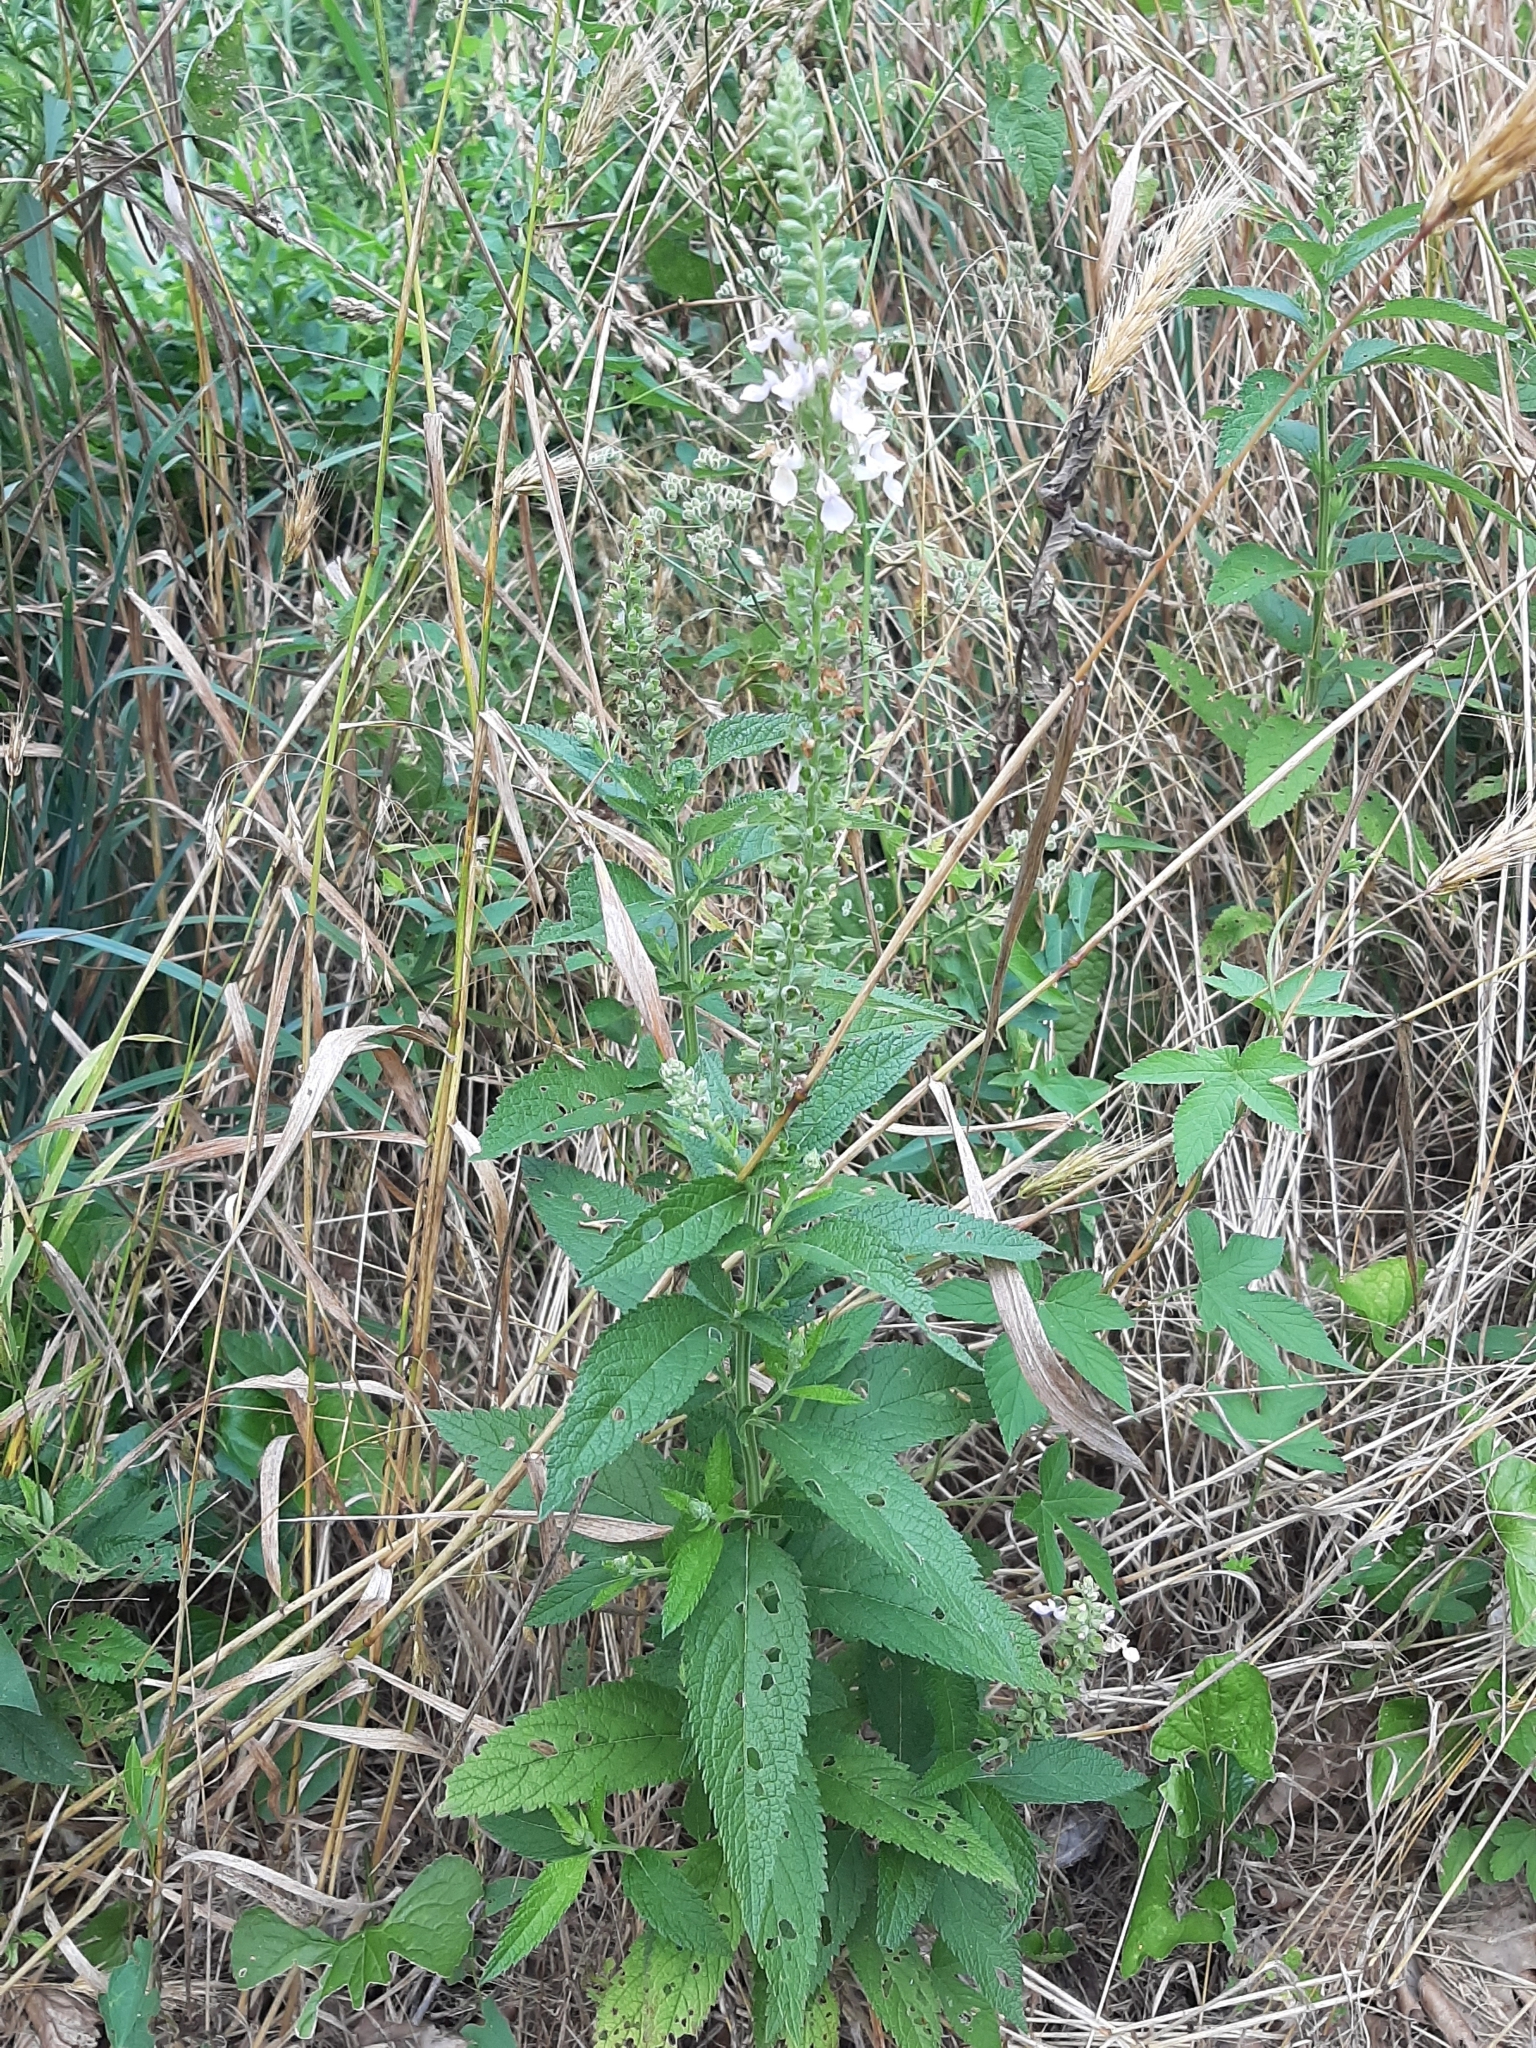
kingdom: Plantae
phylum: Tracheophyta
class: Magnoliopsida
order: Lamiales
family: Lamiaceae
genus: Teucrium
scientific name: Teucrium canadense
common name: American germander
